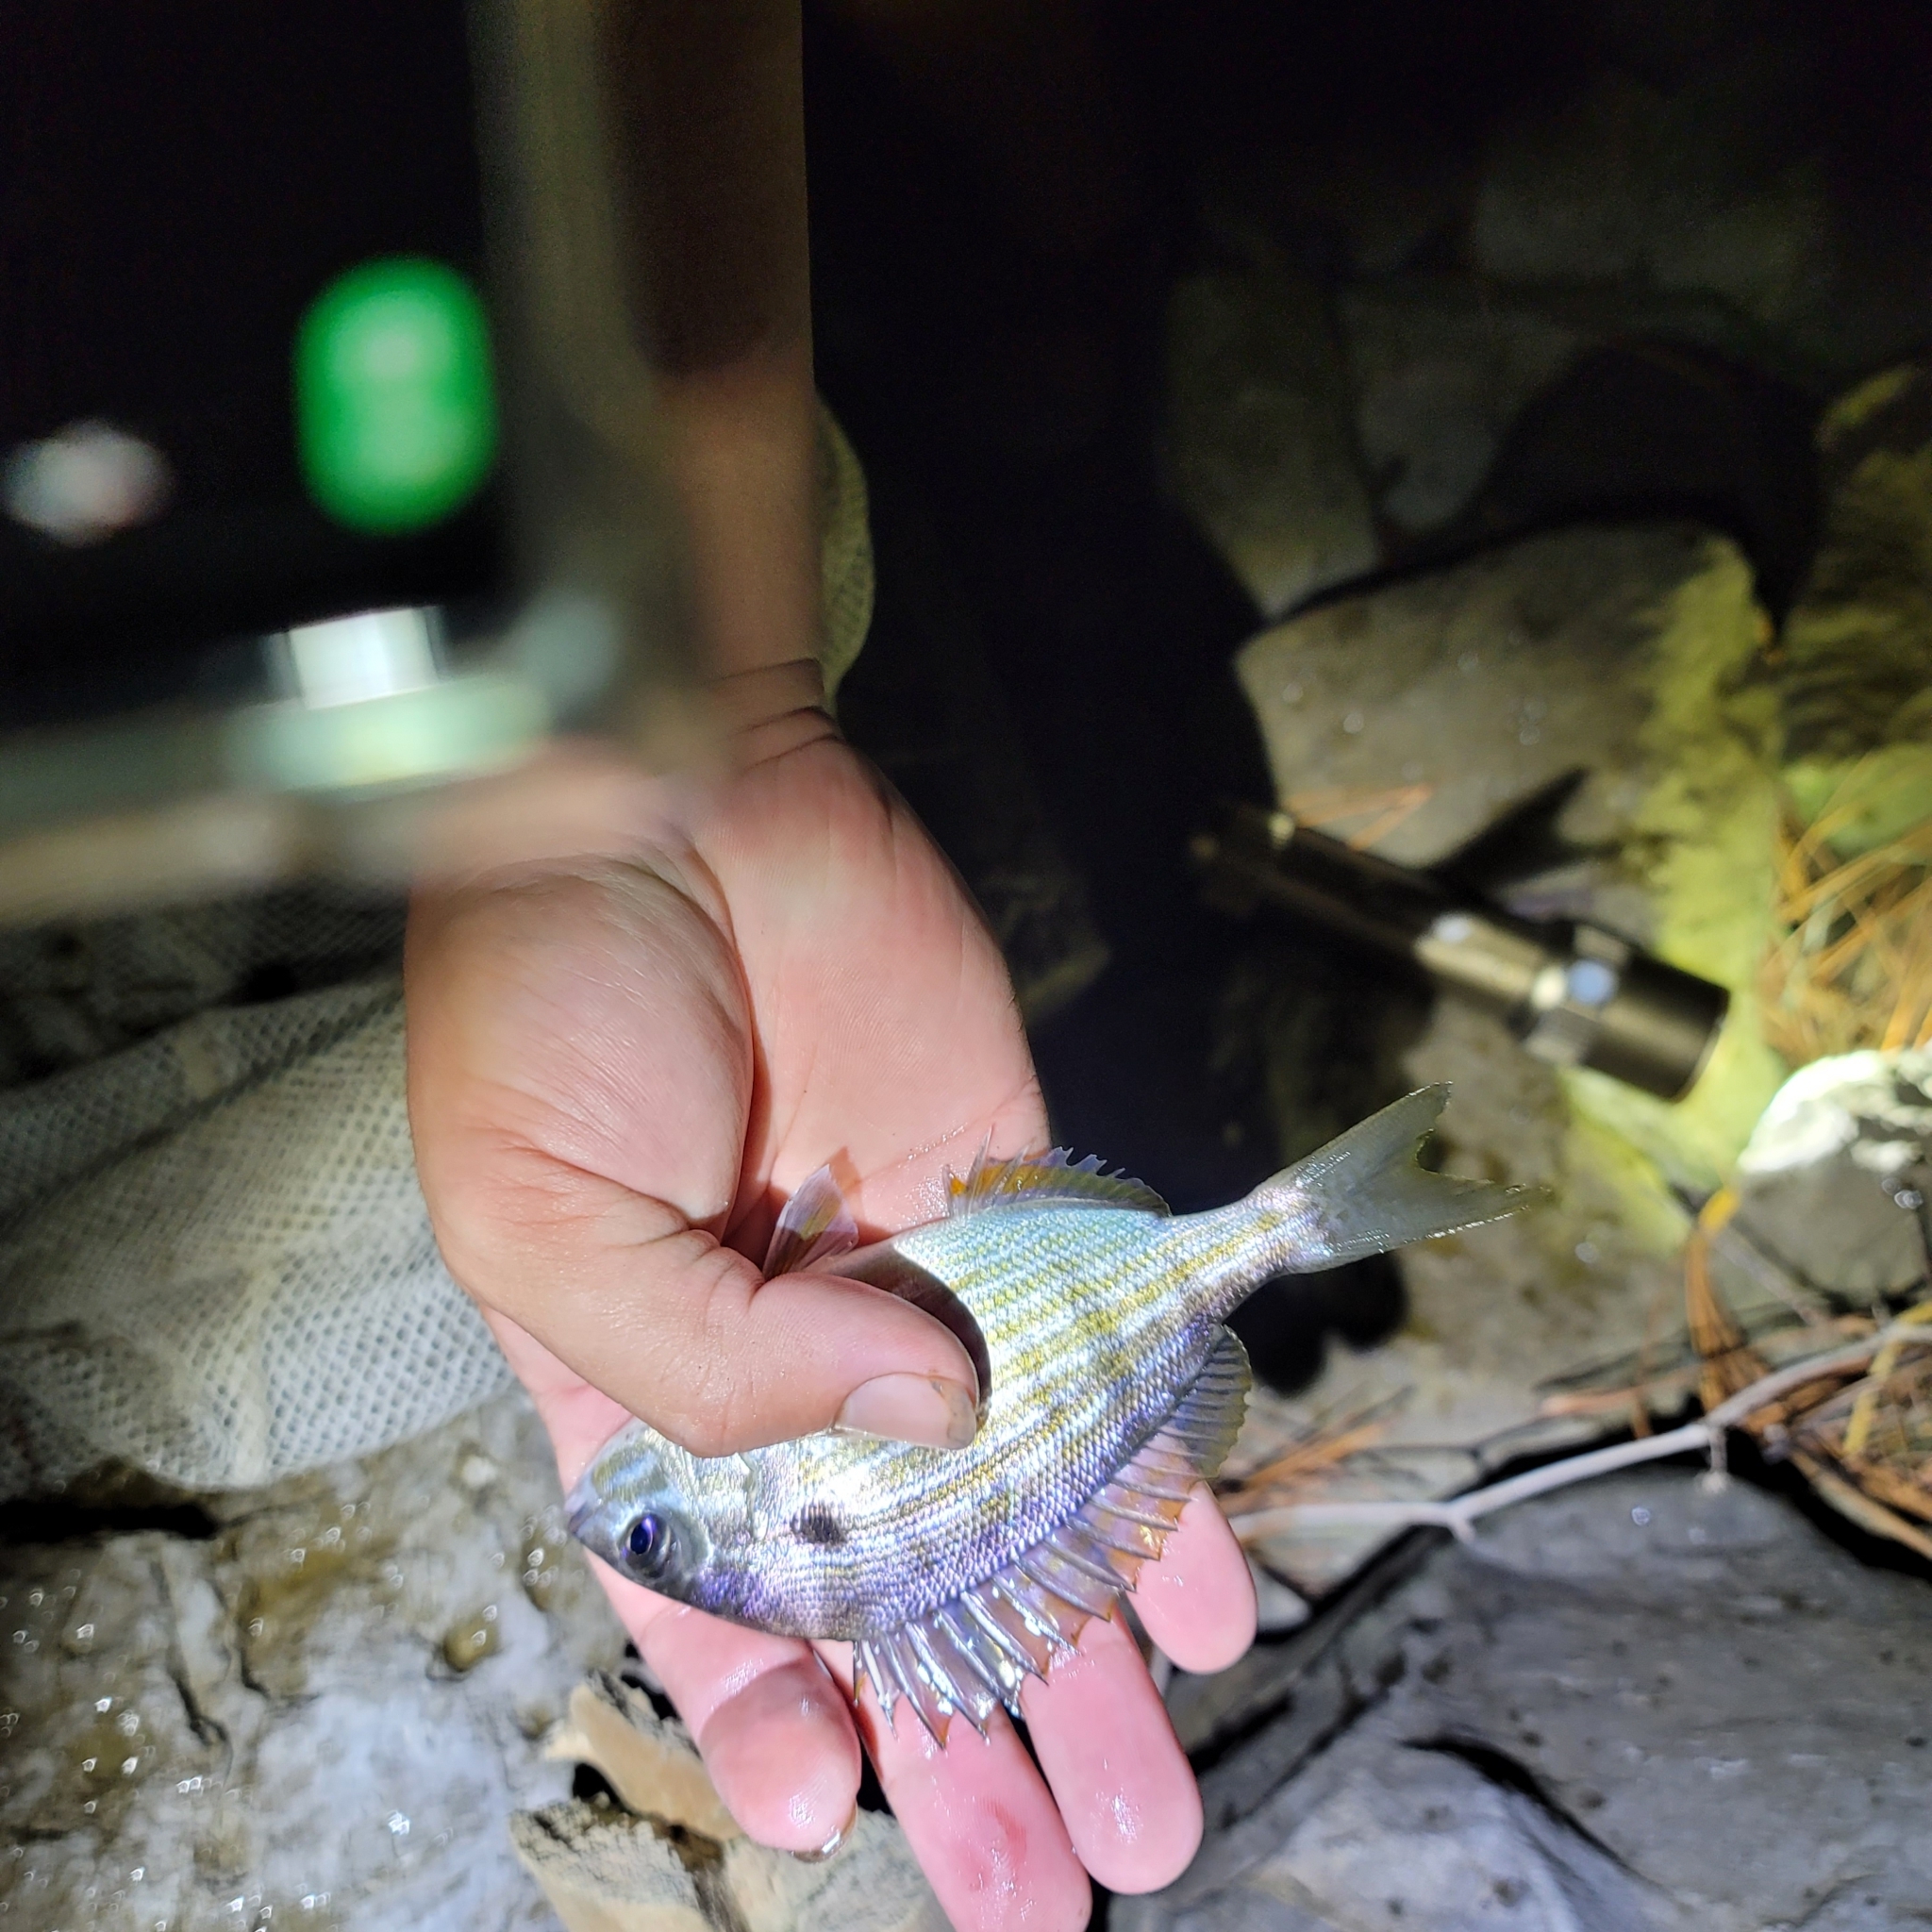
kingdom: Animalia
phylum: Chordata
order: Perciformes
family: Sparidae
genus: Lagodon
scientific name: Lagodon rhomboides
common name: Pinfish
